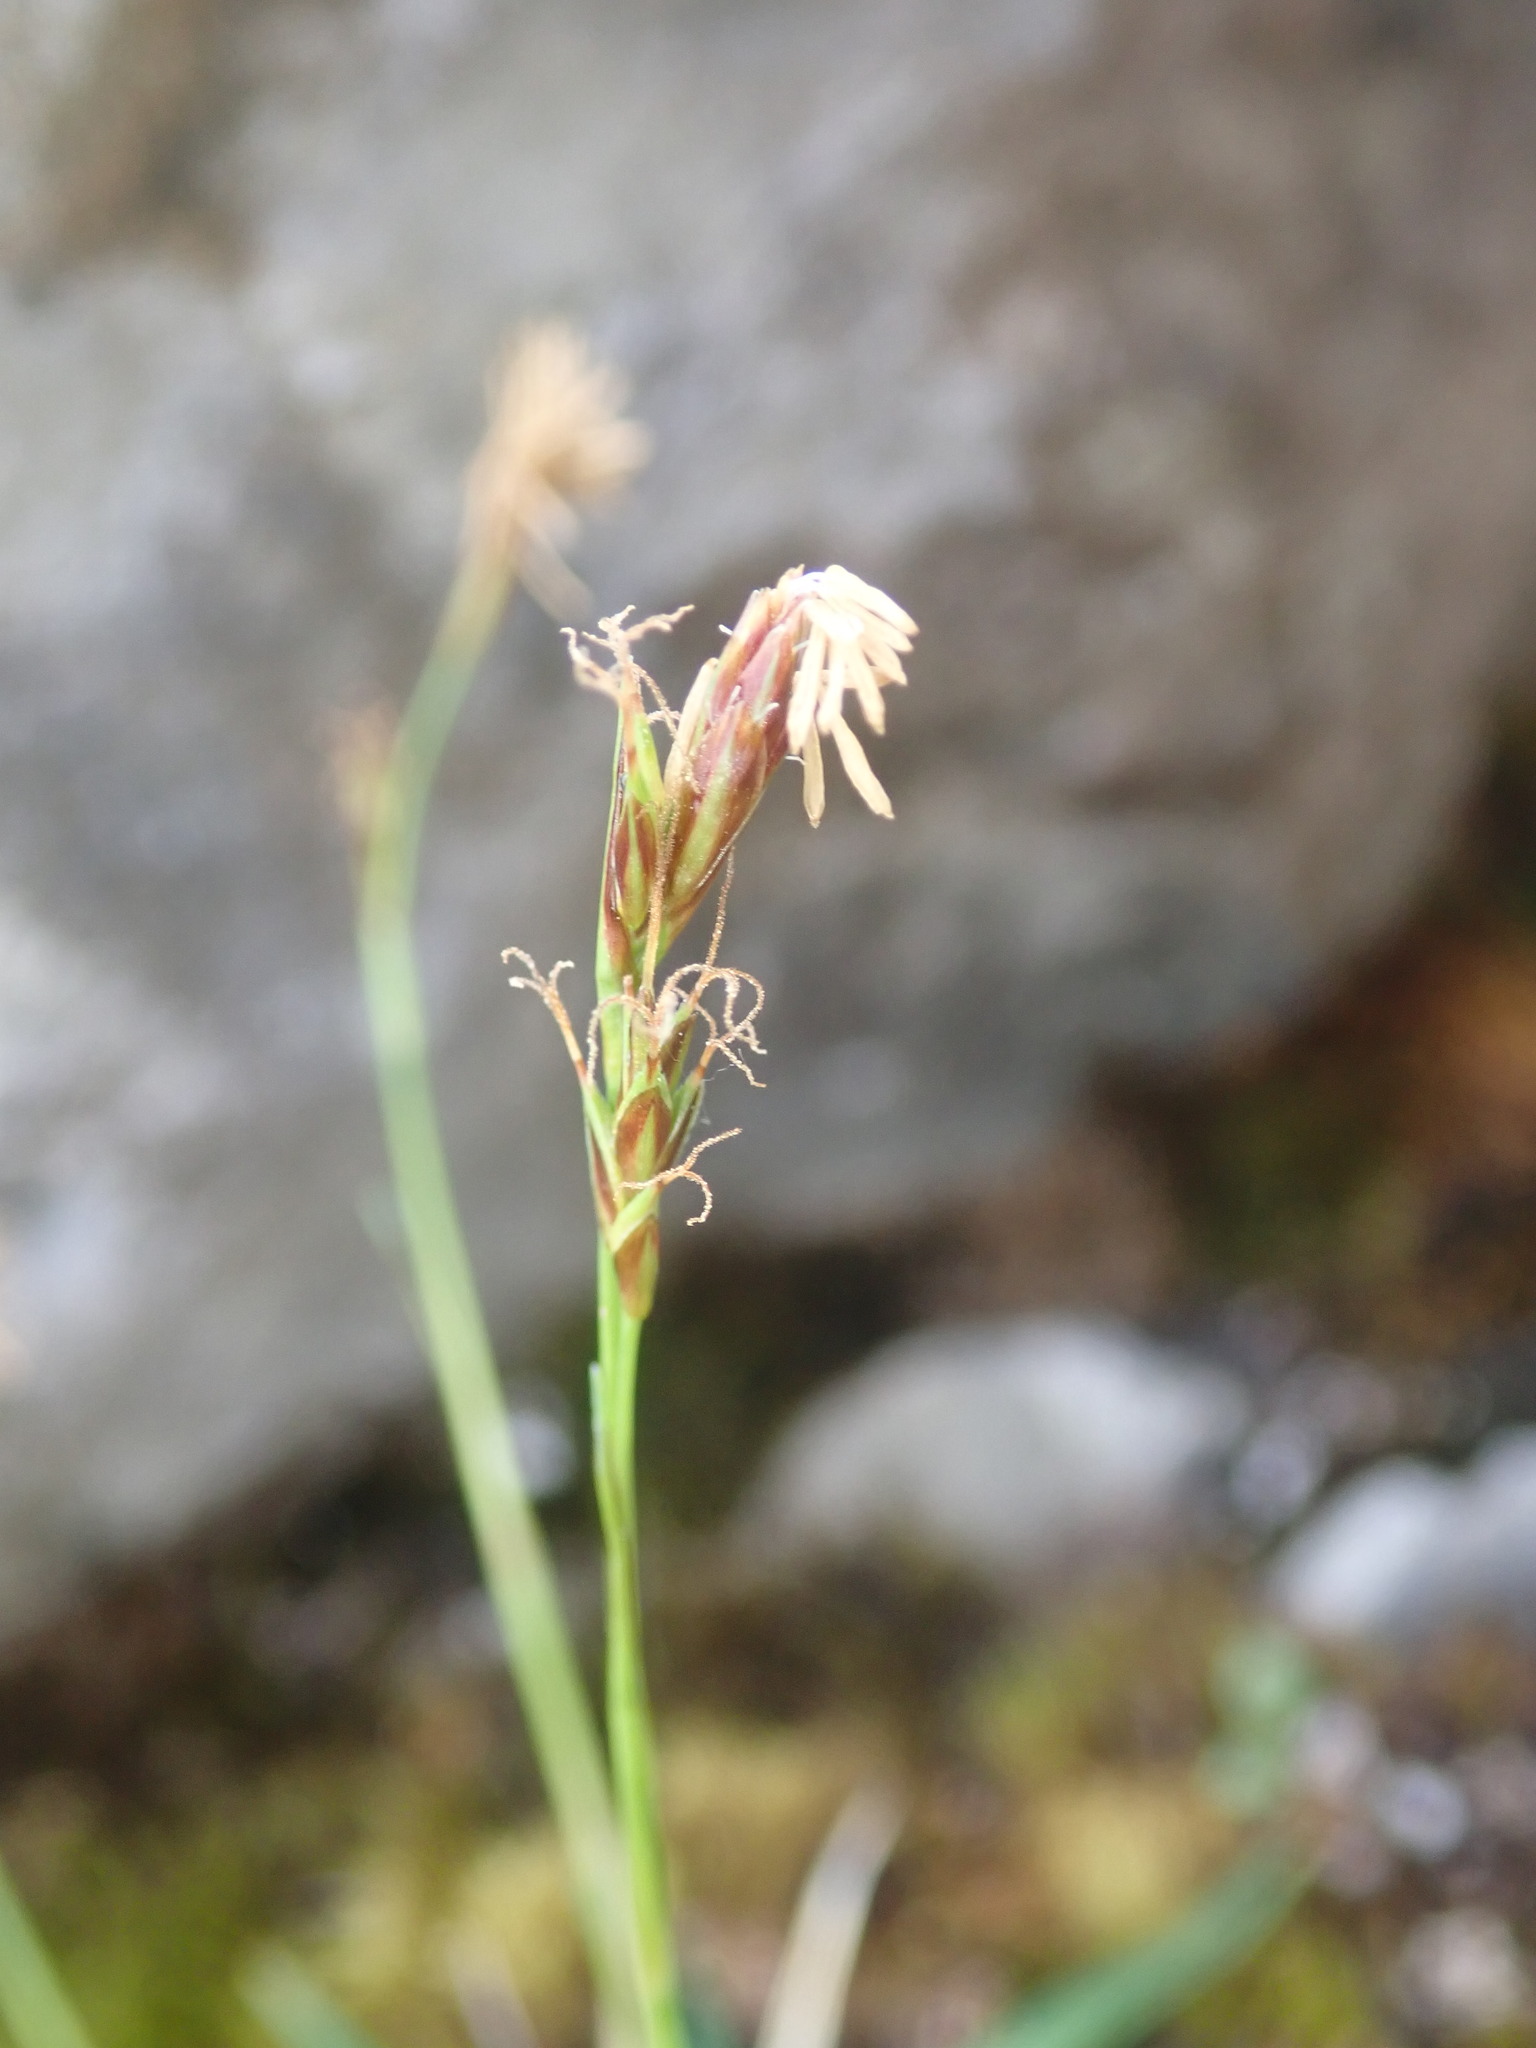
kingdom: Plantae
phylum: Tracheophyta
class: Liliopsida
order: Poales
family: Cyperaceae
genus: Carex
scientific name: Carex firma
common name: Dwarf pillow sedge
